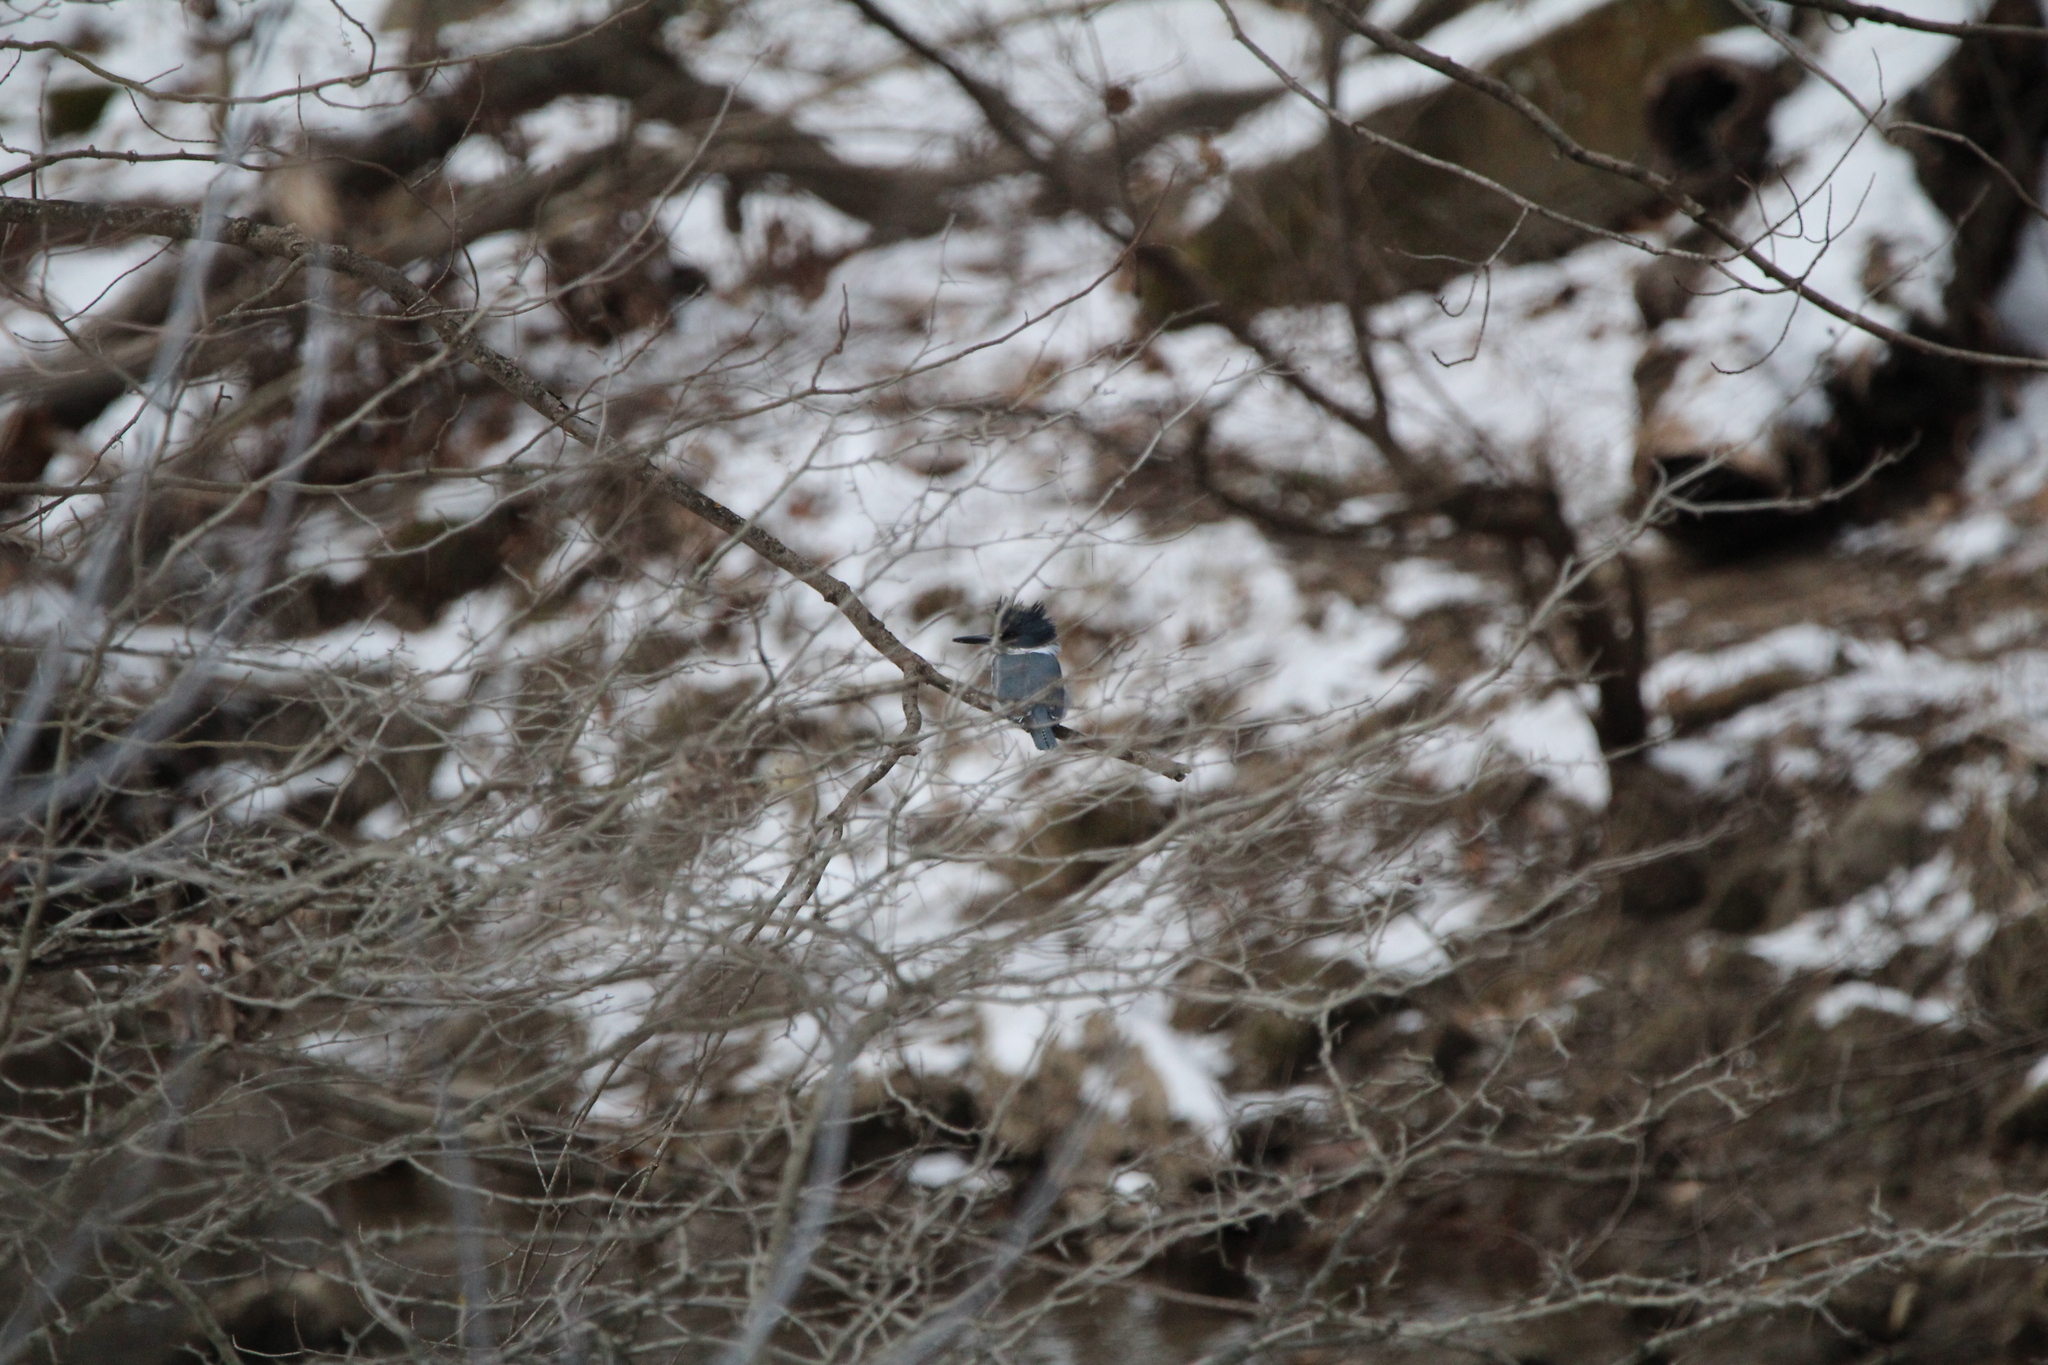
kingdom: Animalia
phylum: Chordata
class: Aves
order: Coraciiformes
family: Alcedinidae
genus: Megaceryle
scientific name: Megaceryle alcyon
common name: Belted kingfisher
